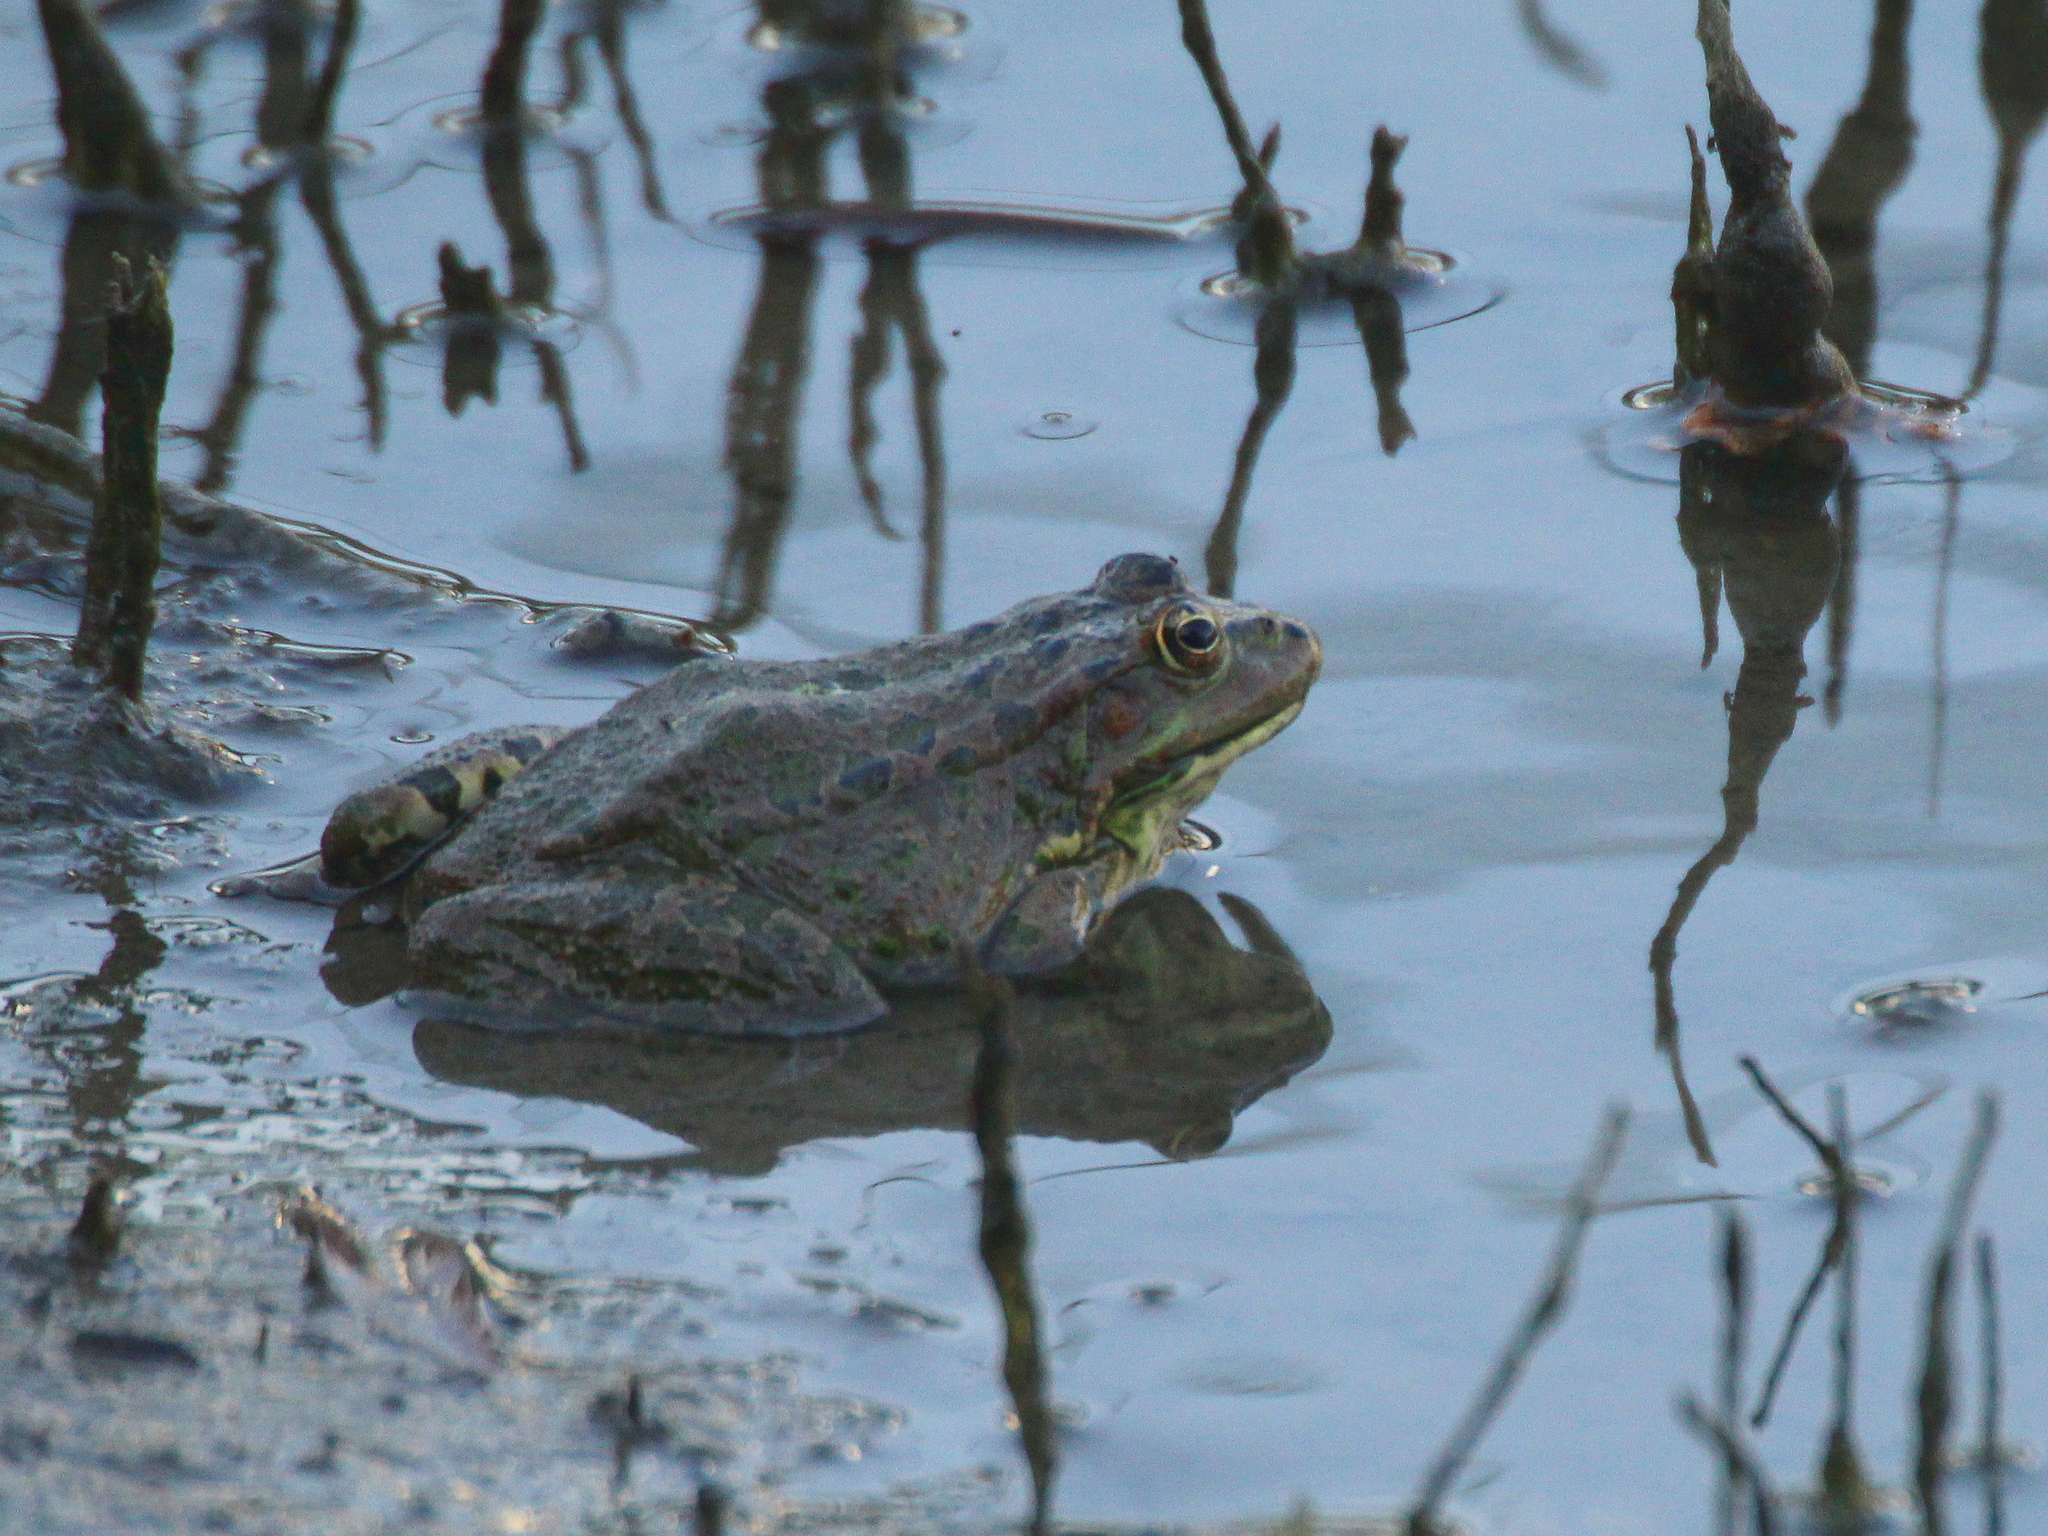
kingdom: Animalia
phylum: Chordata
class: Amphibia
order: Anura
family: Ranidae
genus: Pelophylax
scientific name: Pelophylax ridibundus
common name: Marsh frog
